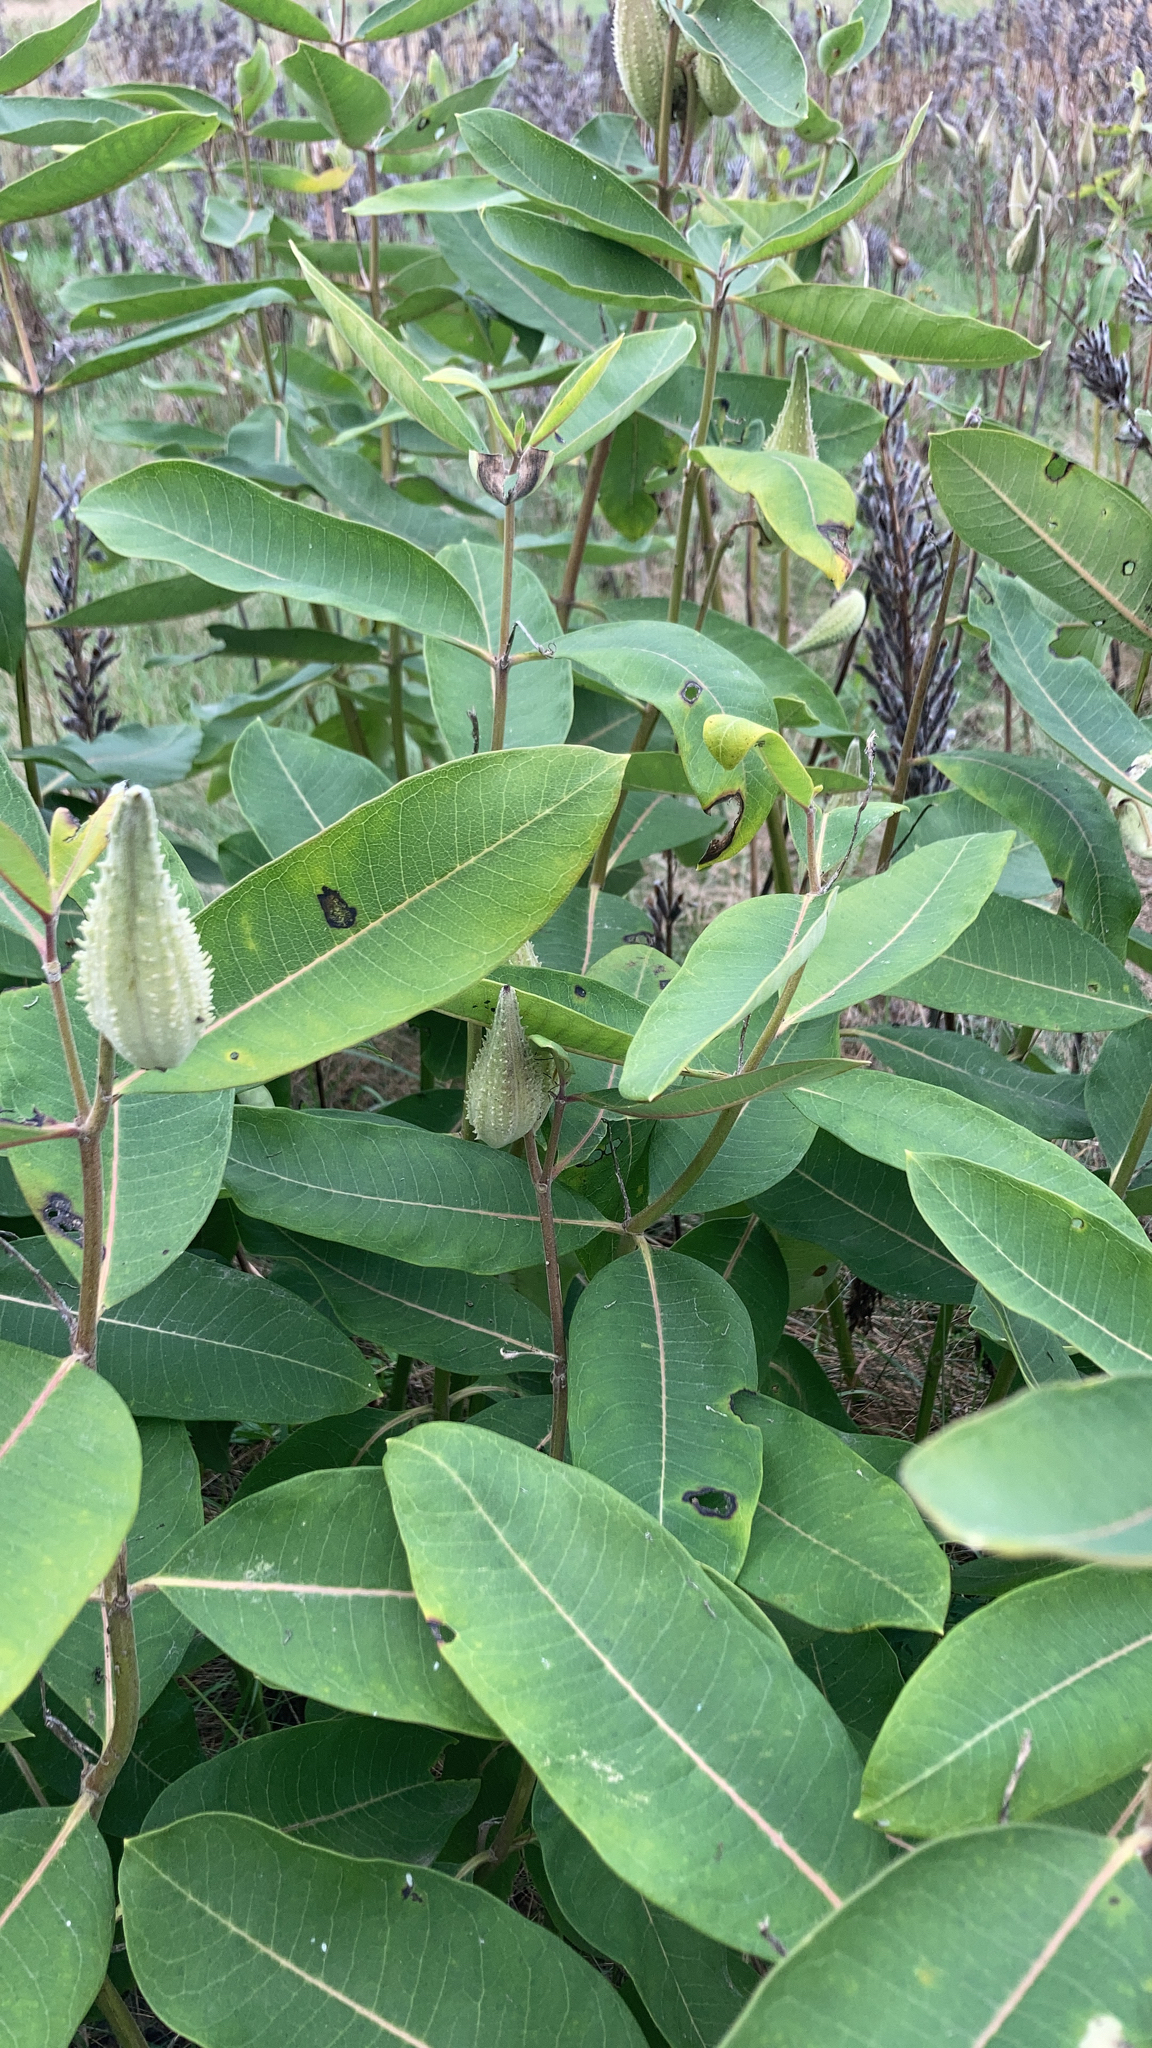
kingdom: Plantae
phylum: Tracheophyta
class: Magnoliopsida
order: Gentianales
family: Apocynaceae
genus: Asclepias
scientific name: Asclepias syriaca
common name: Common milkweed
